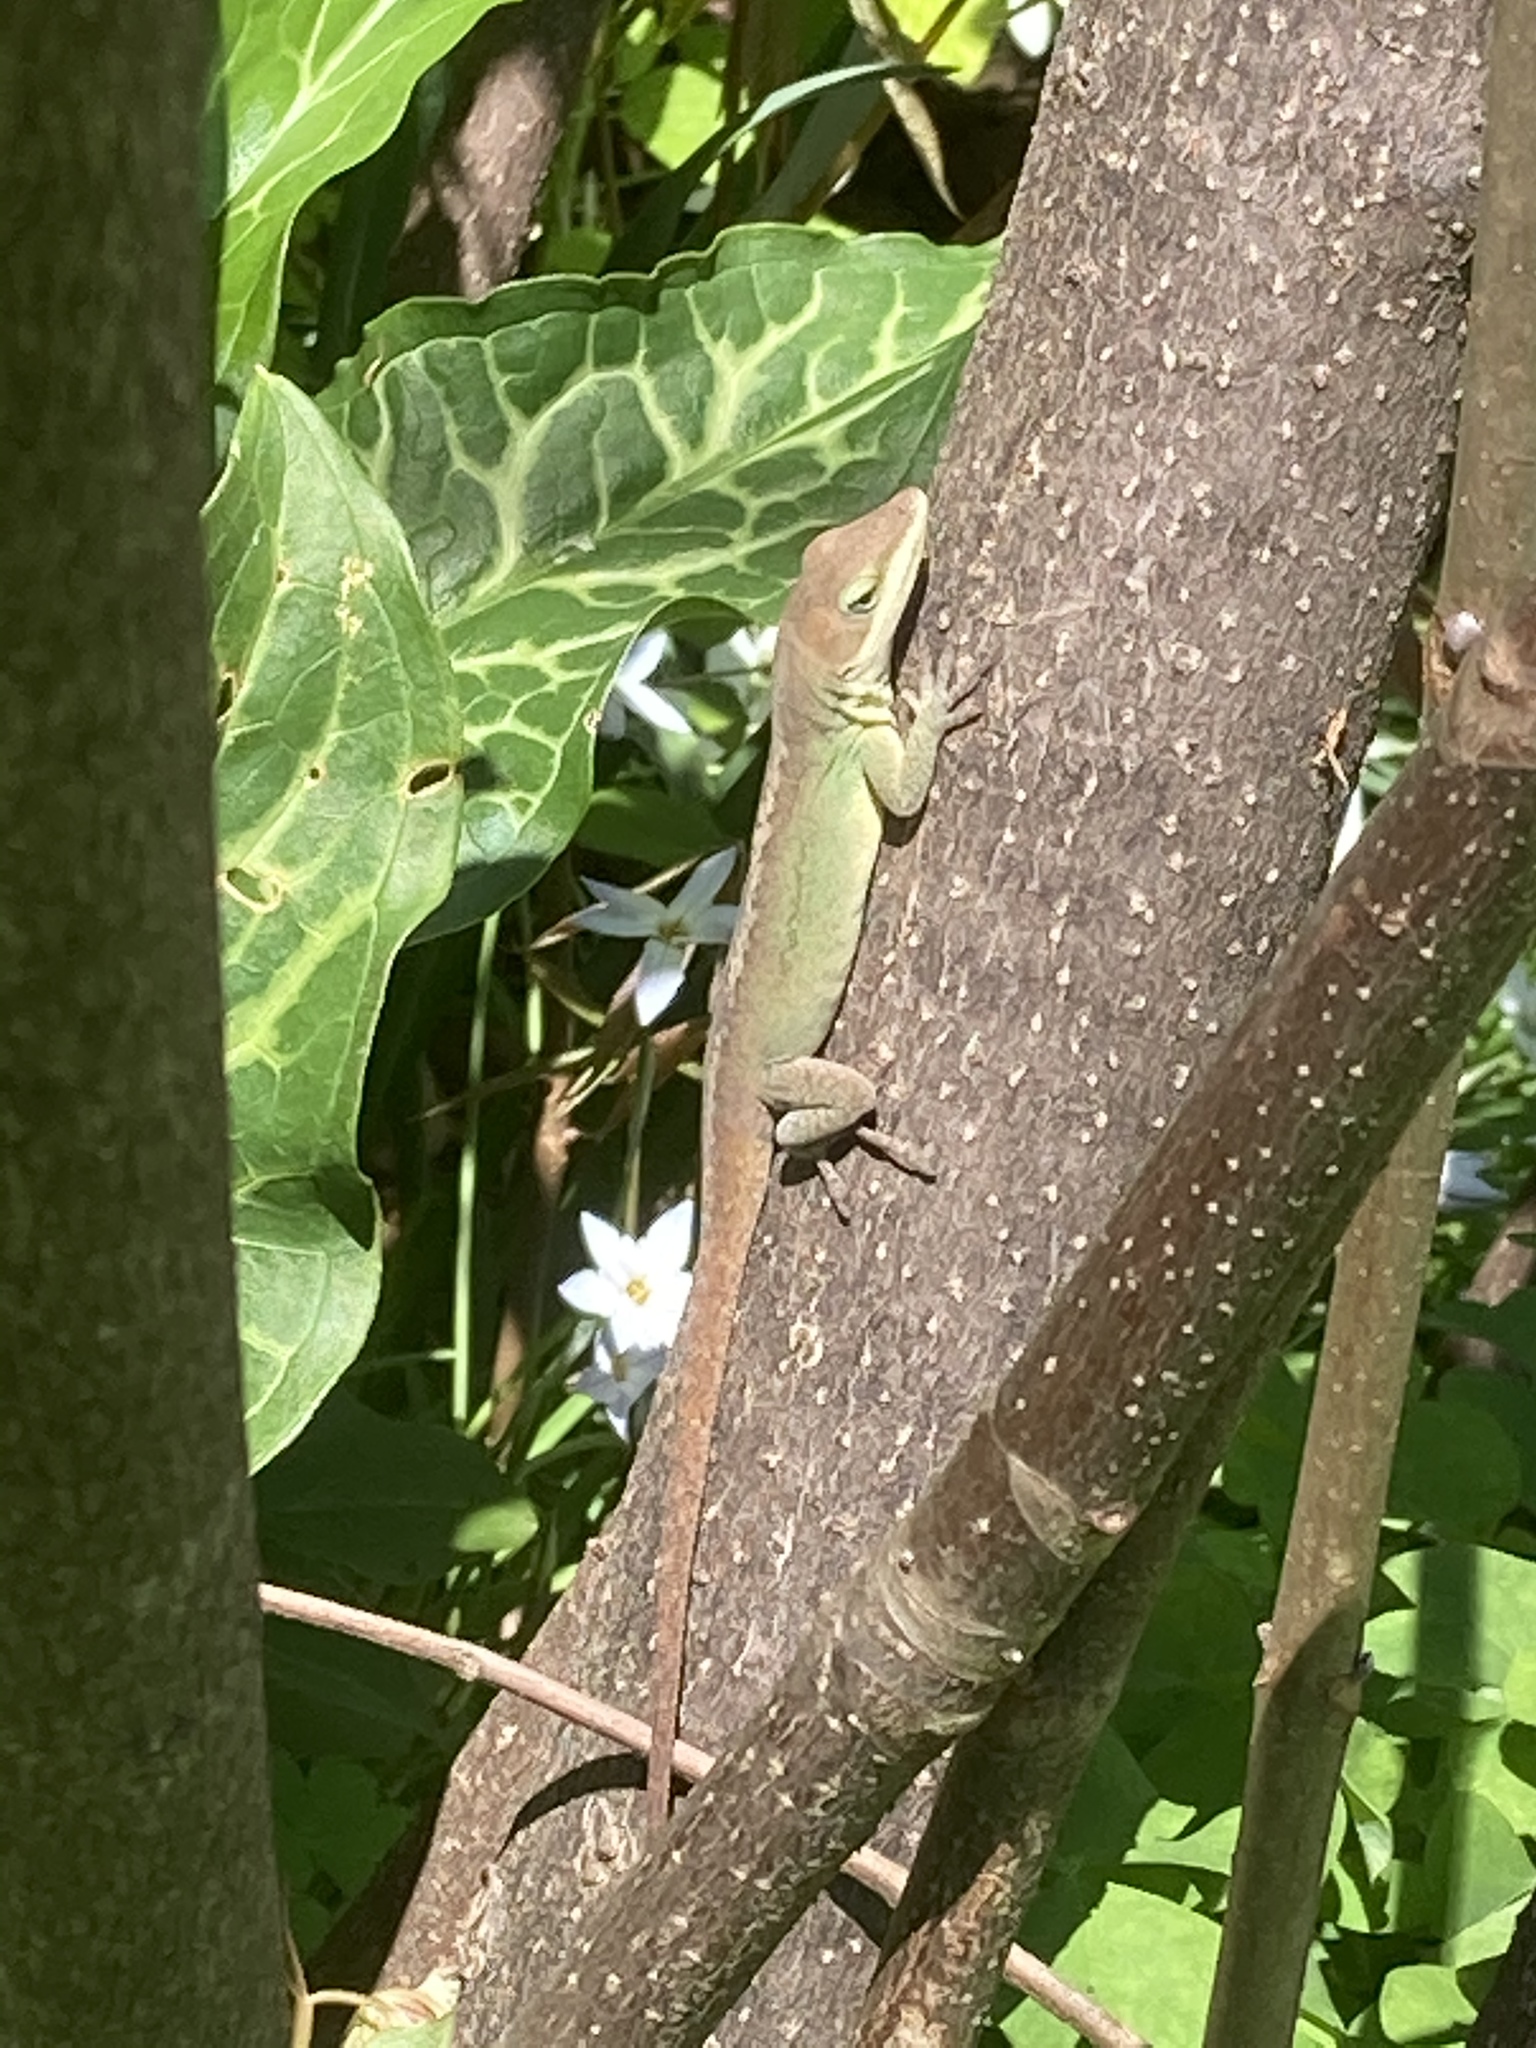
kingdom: Animalia
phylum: Chordata
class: Squamata
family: Dactyloidae
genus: Anolis
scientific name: Anolis carolinensis
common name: Green anole
